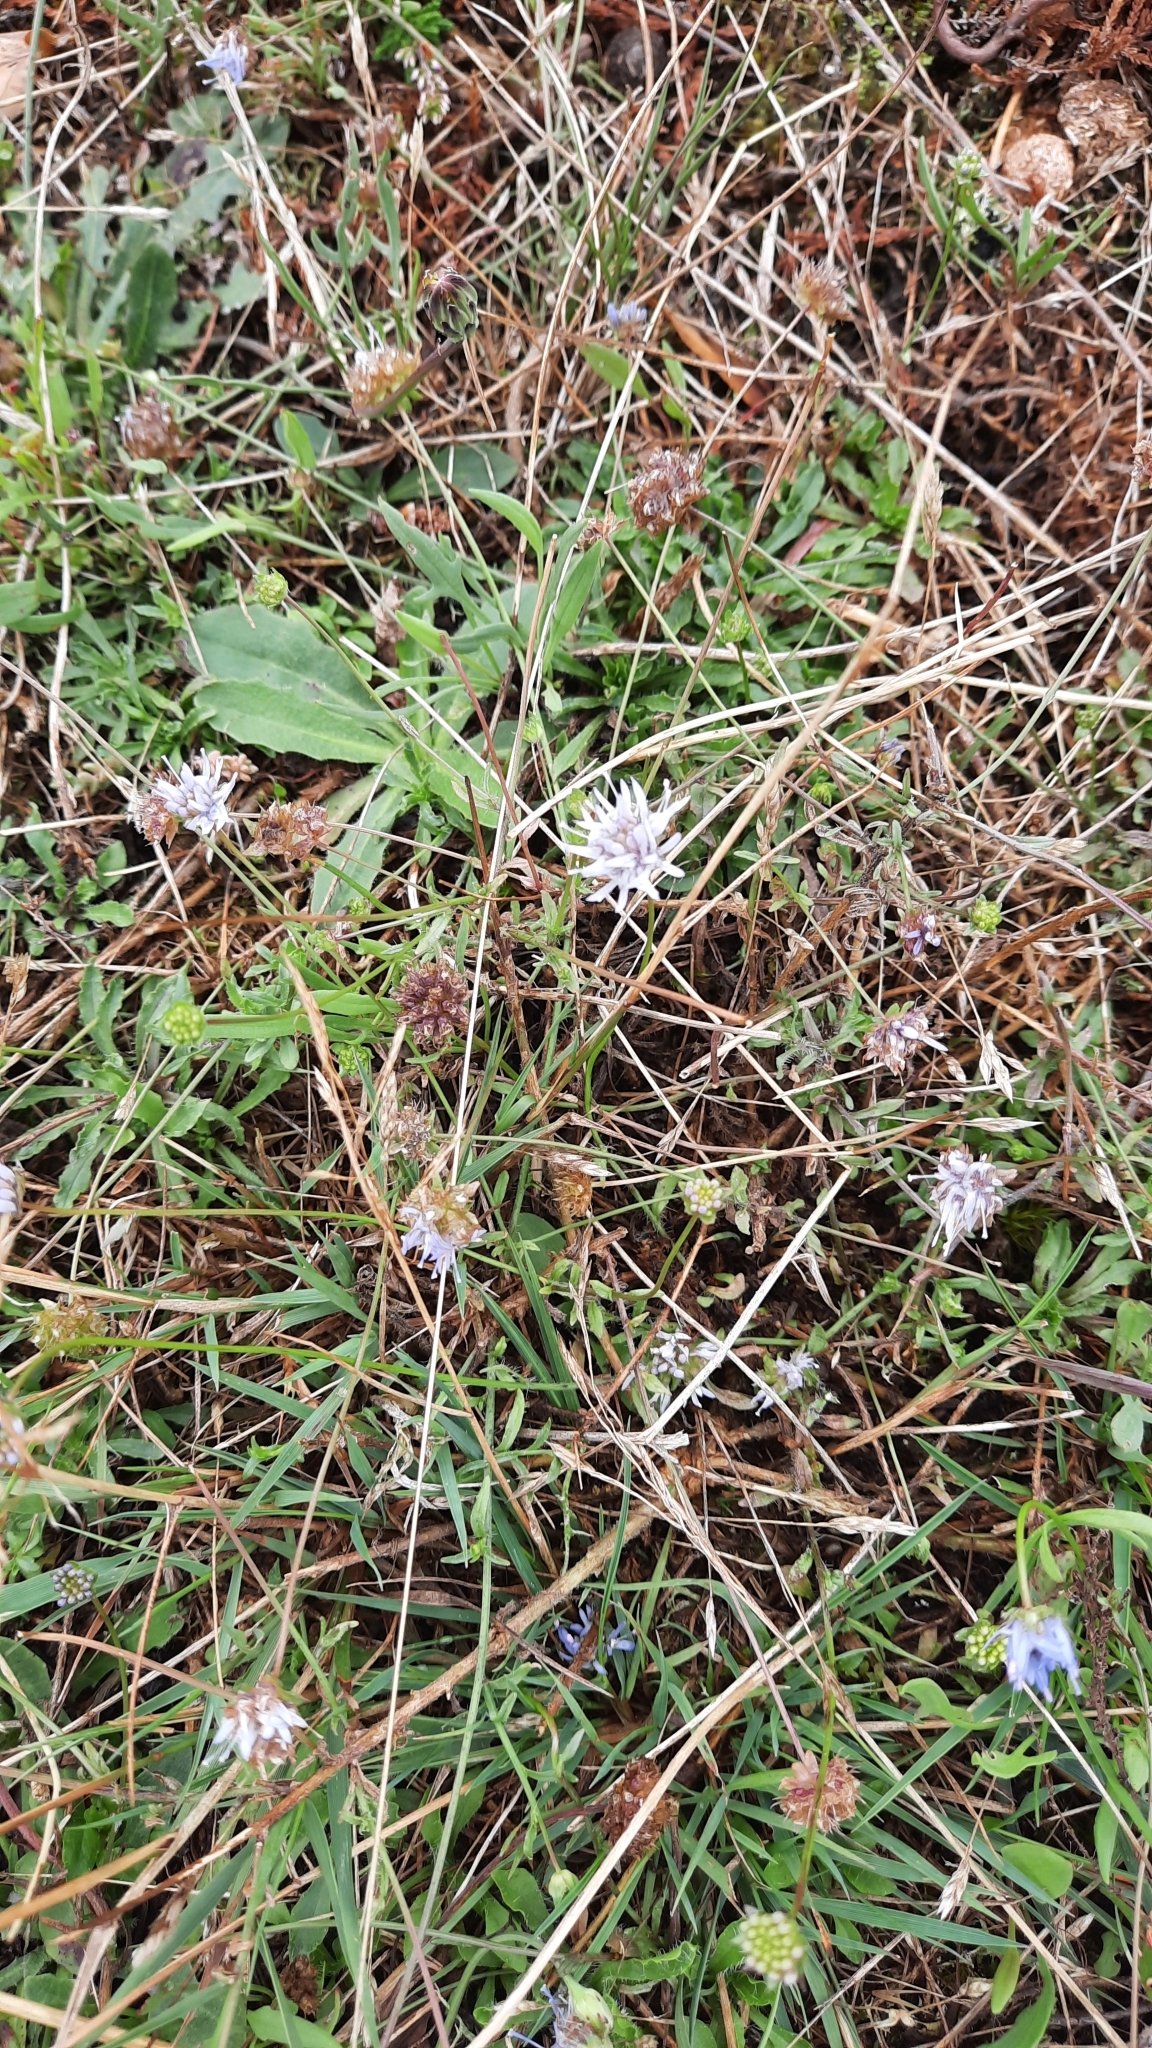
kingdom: Plantae
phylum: Tracheophyta
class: Magnoliopsida
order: Asterales
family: Campanulaceae
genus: Jasione
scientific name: Jasione montana
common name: Sheep's-bit
